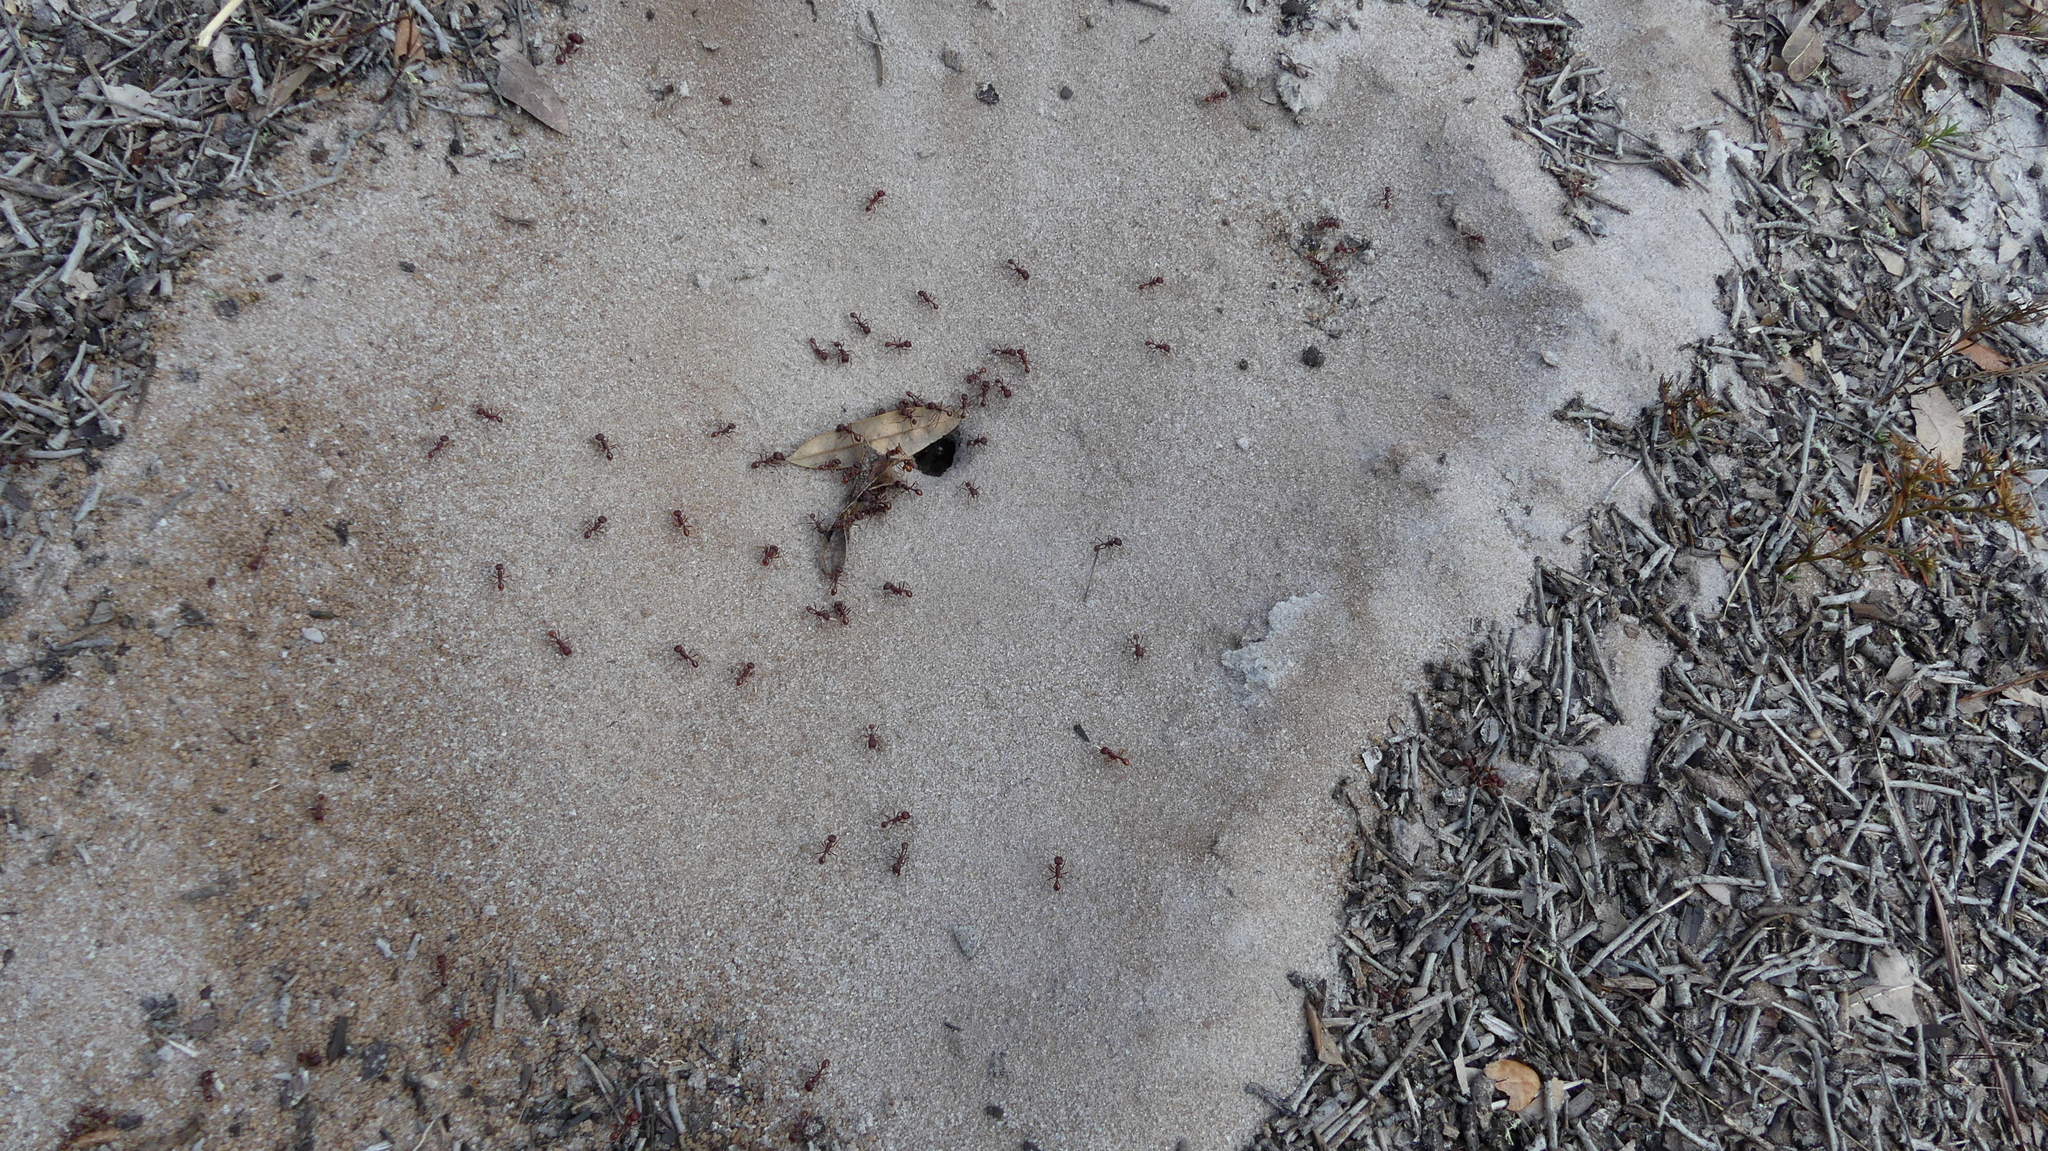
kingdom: Animalia
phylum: Arthropoda
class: Insecta
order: Hymenoptera
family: Formicidae
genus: Pogonomyrmex
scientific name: Pogonomyrmex badius
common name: Florida harvester ant
